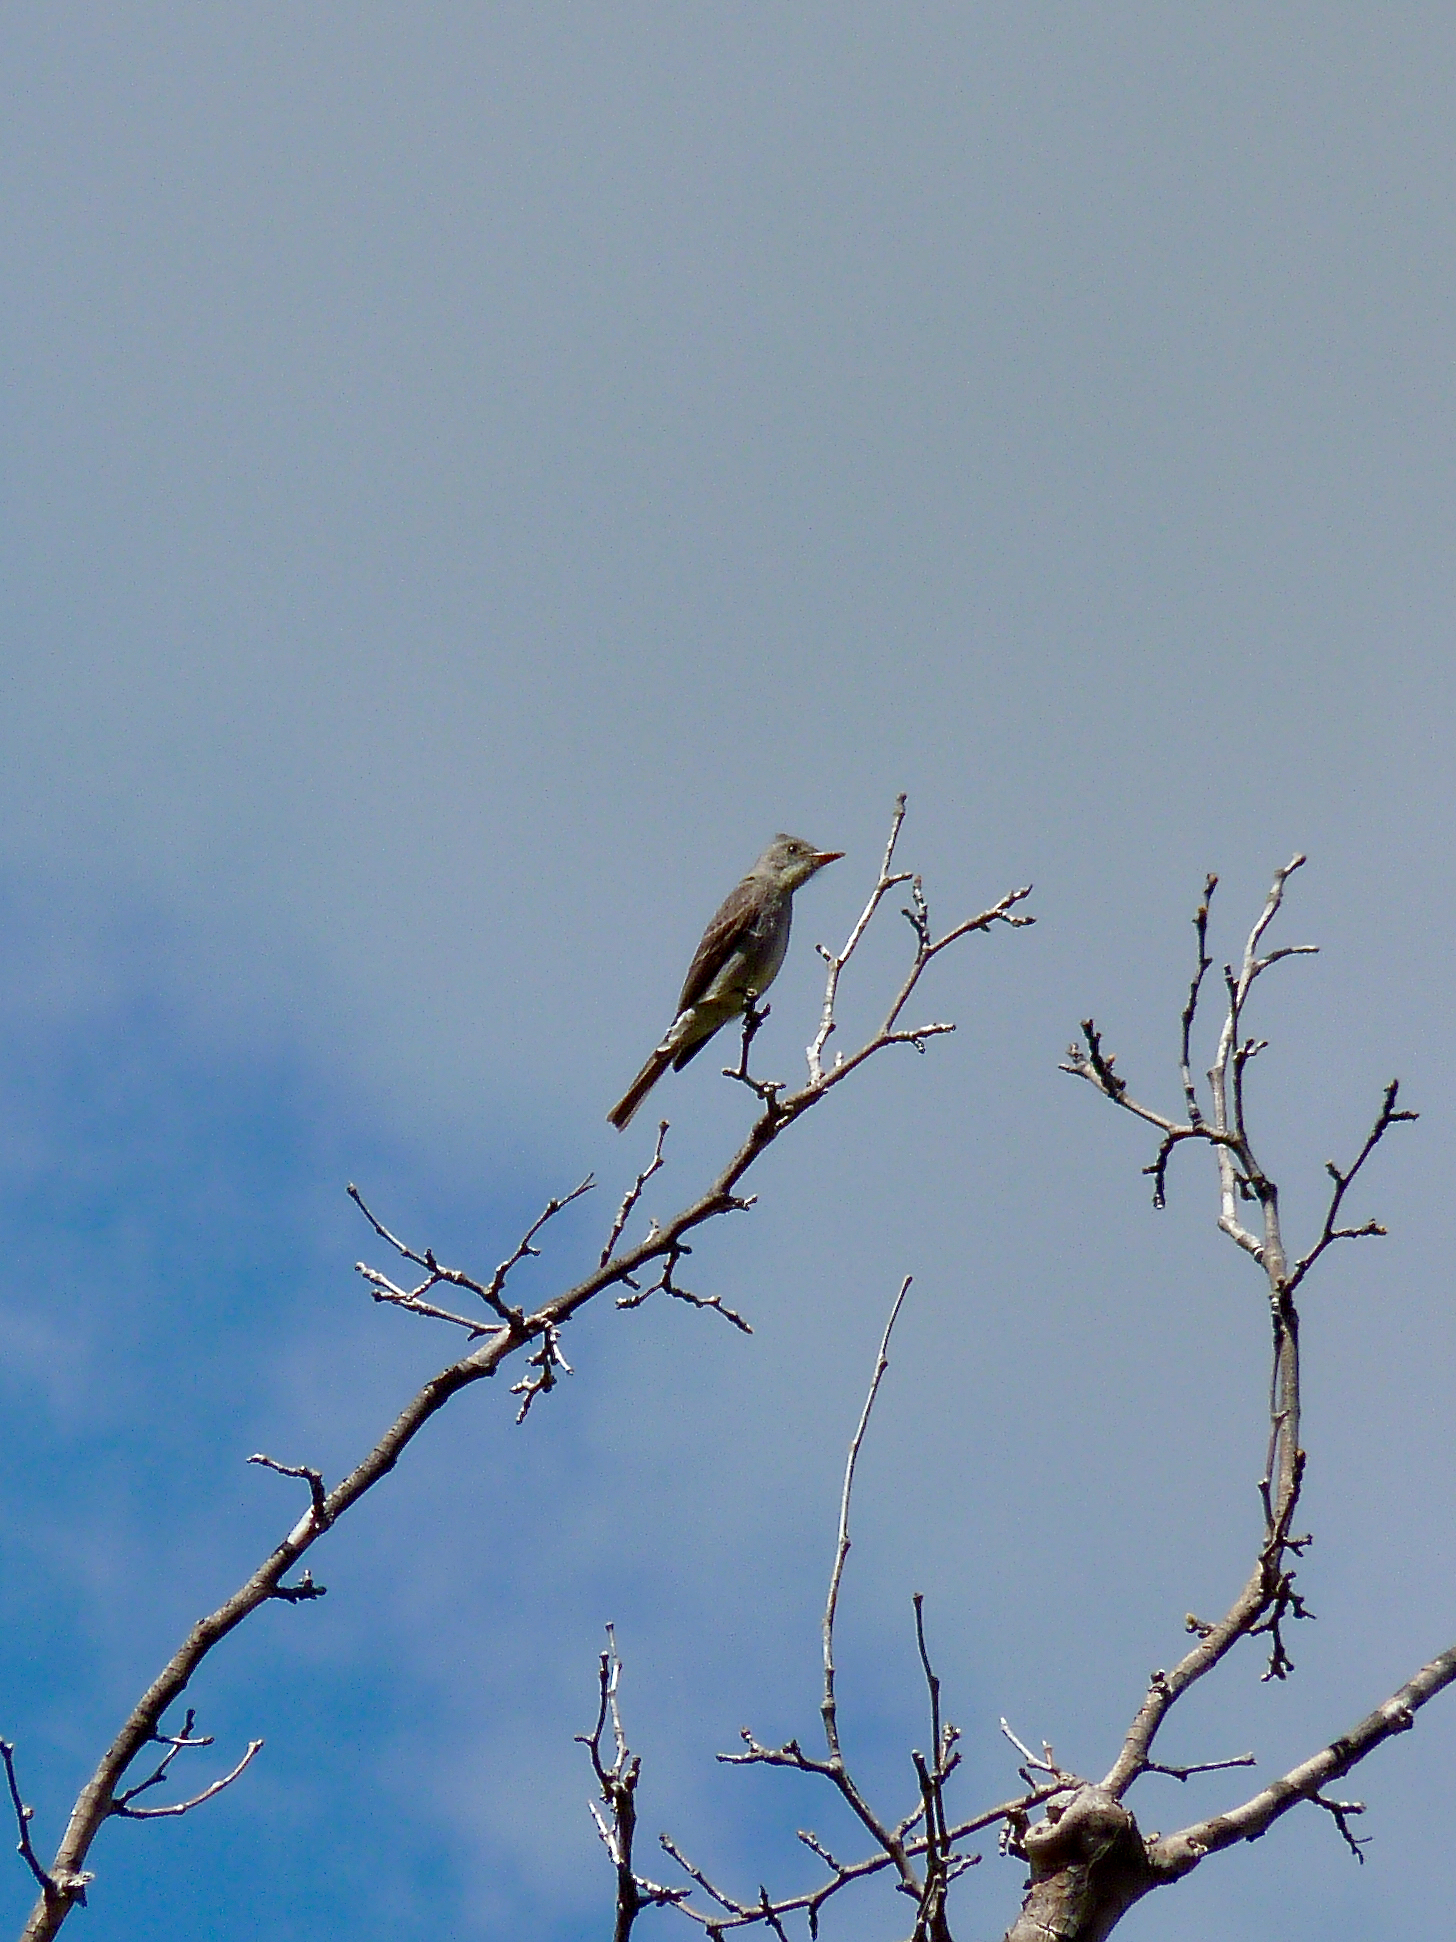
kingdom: Animalia
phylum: Chordata
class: Aves
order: Passeriformes
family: Tyrannidae
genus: Contopus
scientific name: Contopus pertinax
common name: Greater pewee
